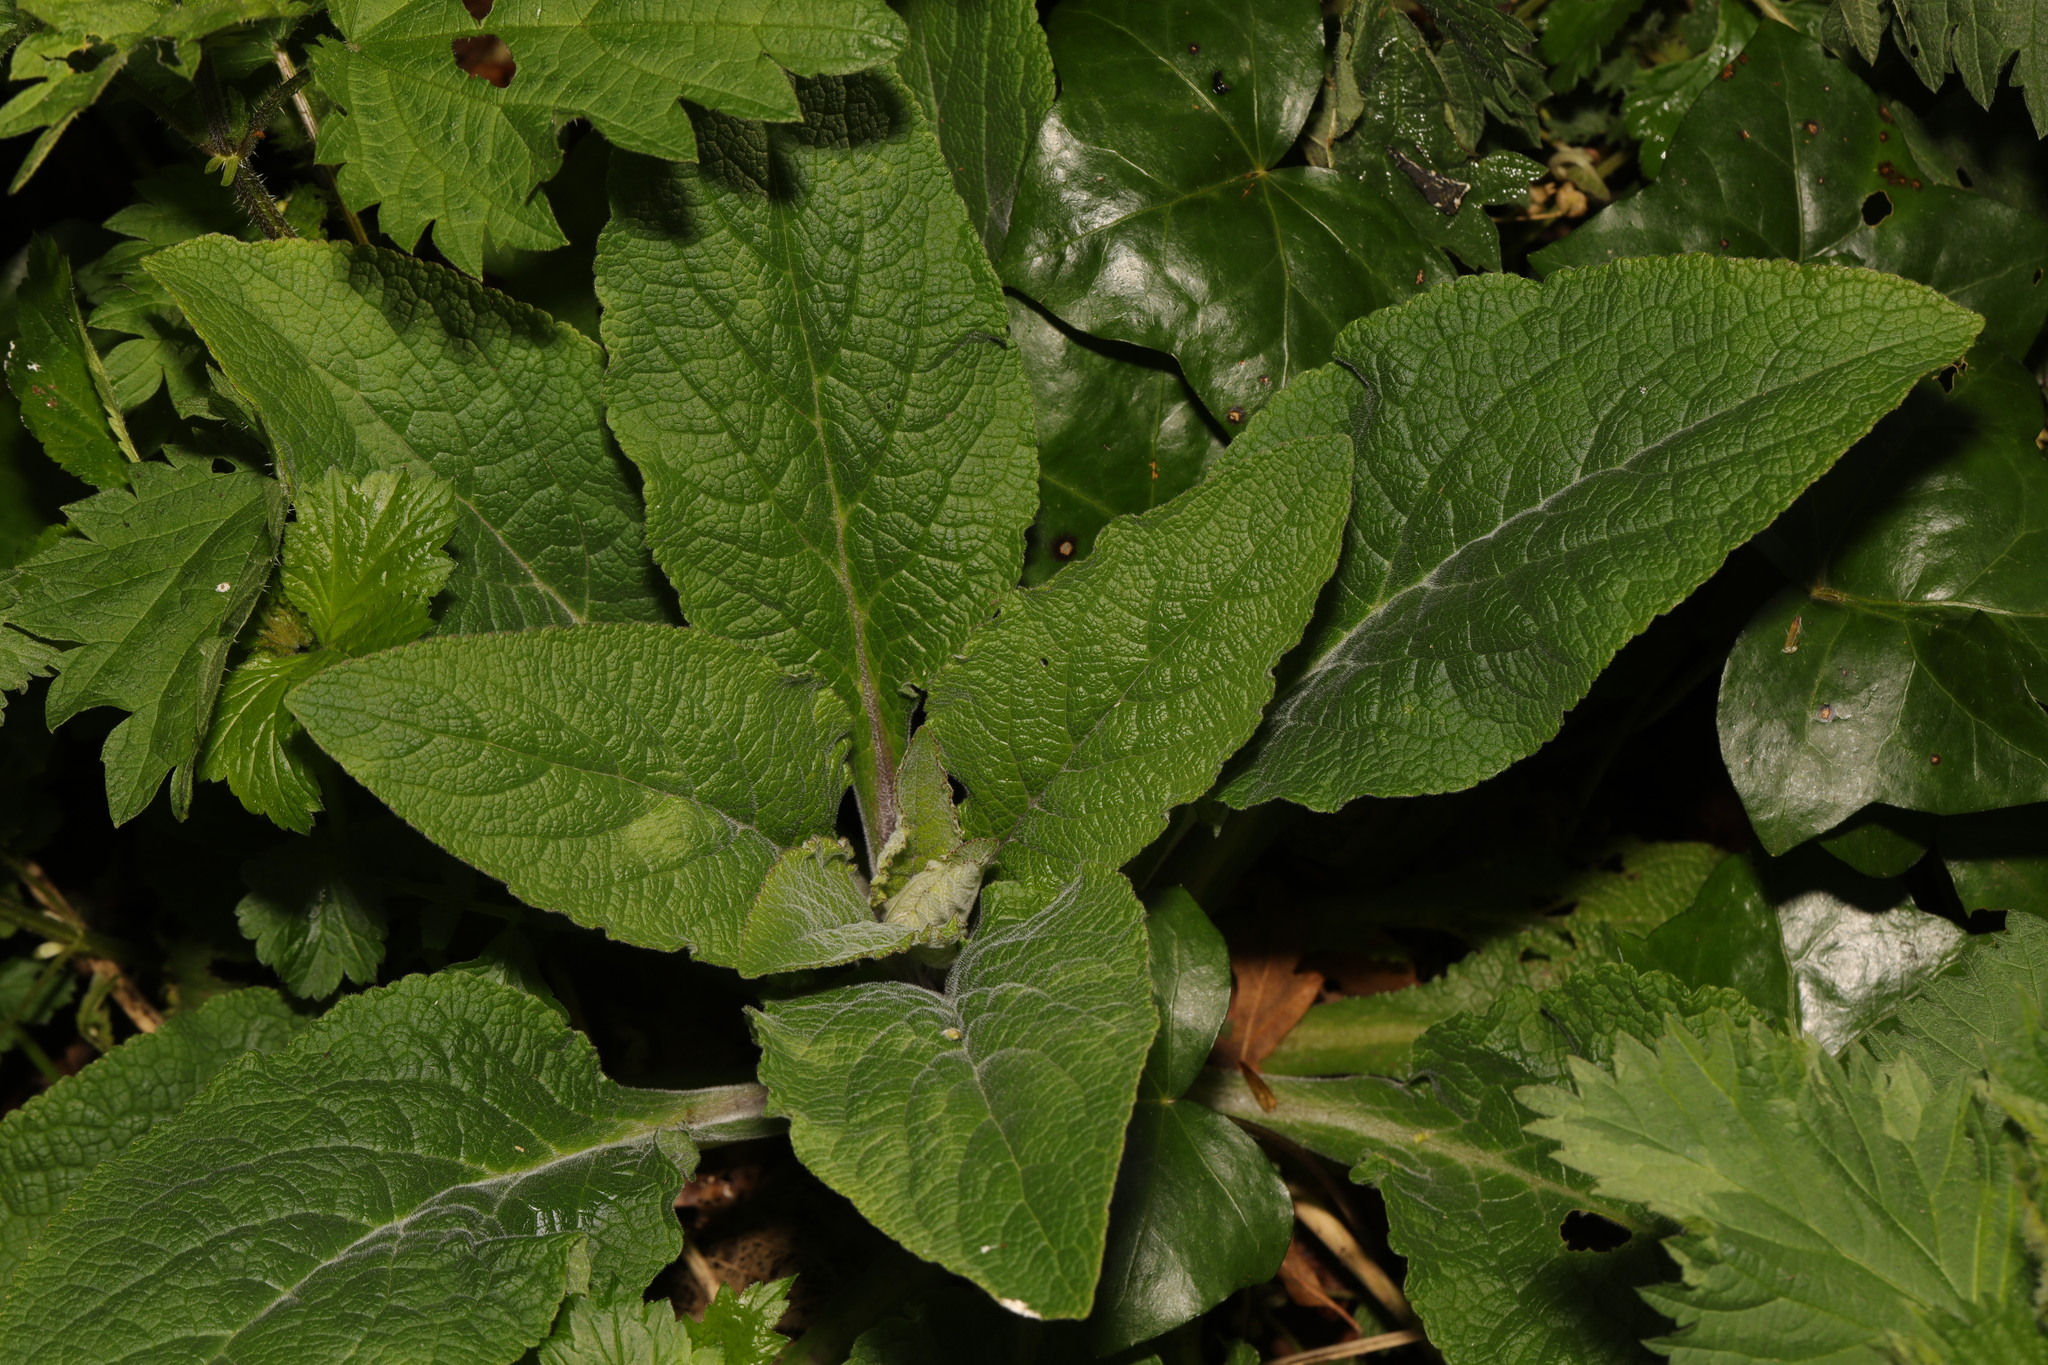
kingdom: Plantae
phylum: Tracheophyta
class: Magnoliopsida
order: Lamiales
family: Plantaginaceae
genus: Digitalis
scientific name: Digitalis purpurea
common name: Foxglove
